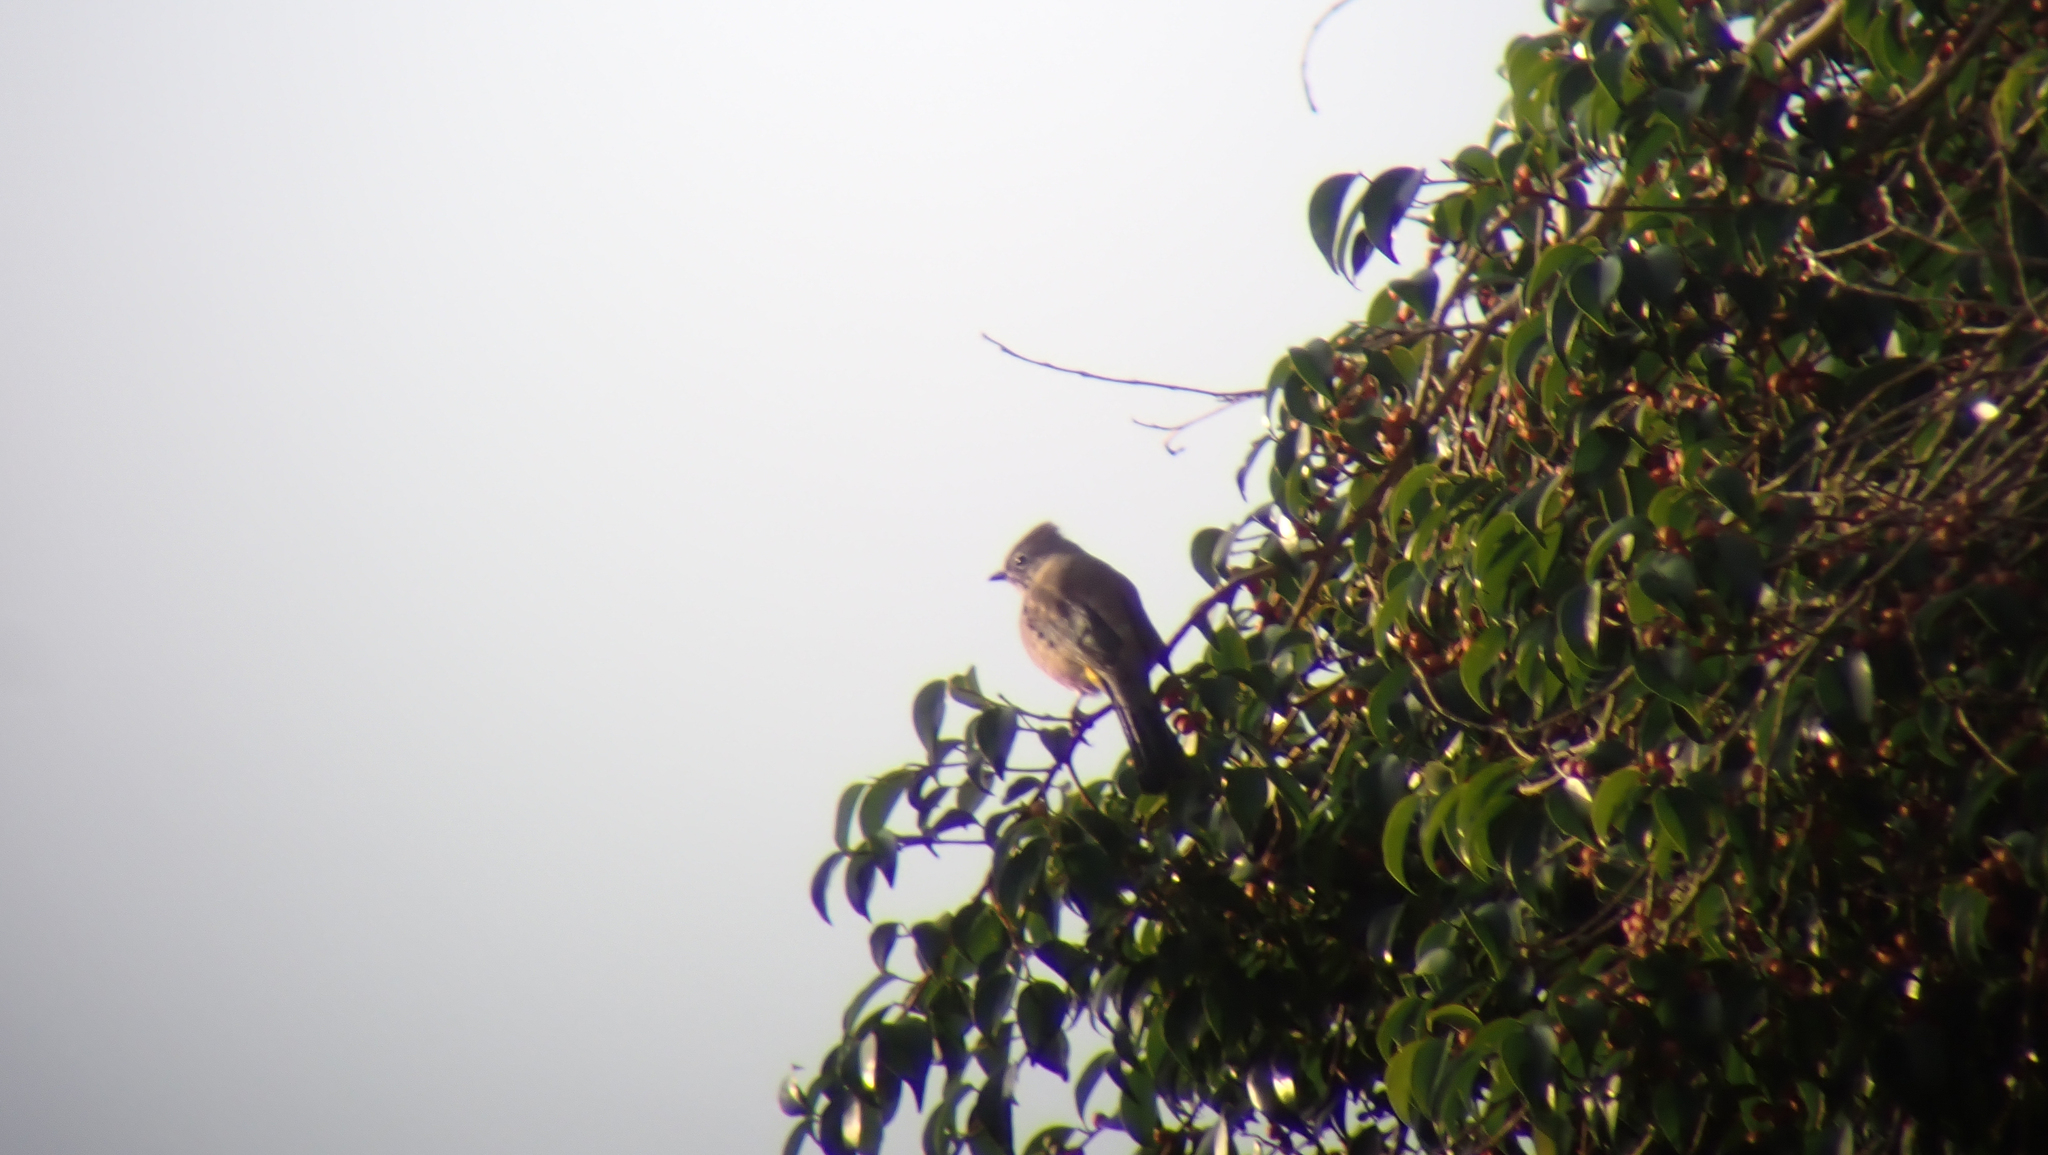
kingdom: Animalia
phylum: Chordata
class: Aves
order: Passeriformes
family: Ptilogonatidae
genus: Ptilogonys
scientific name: Ptilogonys cinereus
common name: Gray silky-flycatcher
